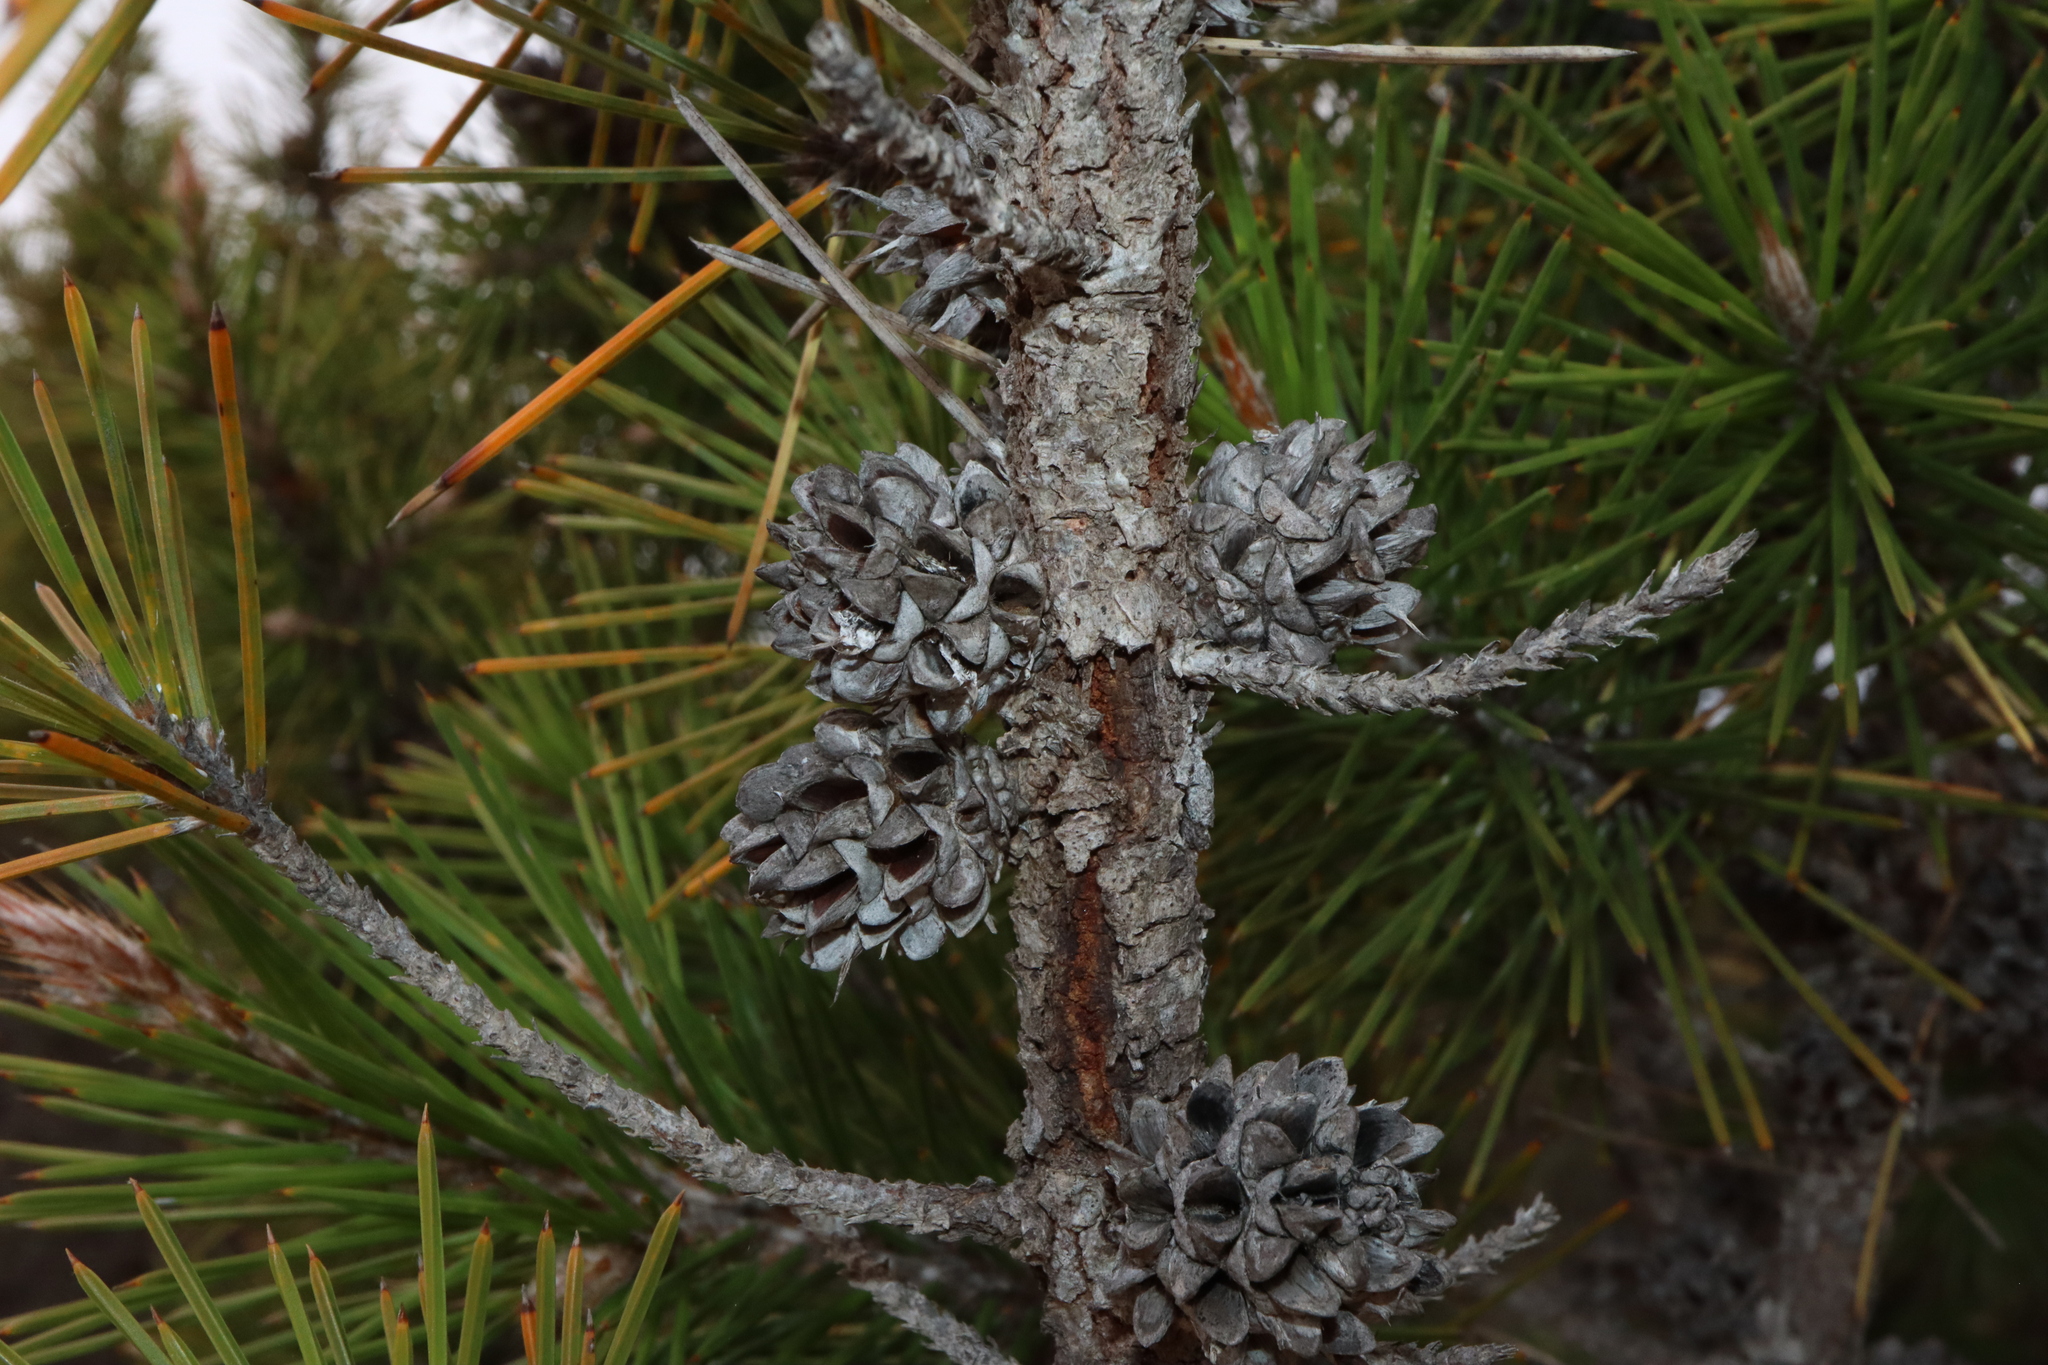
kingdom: Plantae
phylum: Tracheophyta
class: Magnoliopsida
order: Fagales
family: Casuarinaceae
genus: Allocasuarina
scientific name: Allocasuarina pinaster
